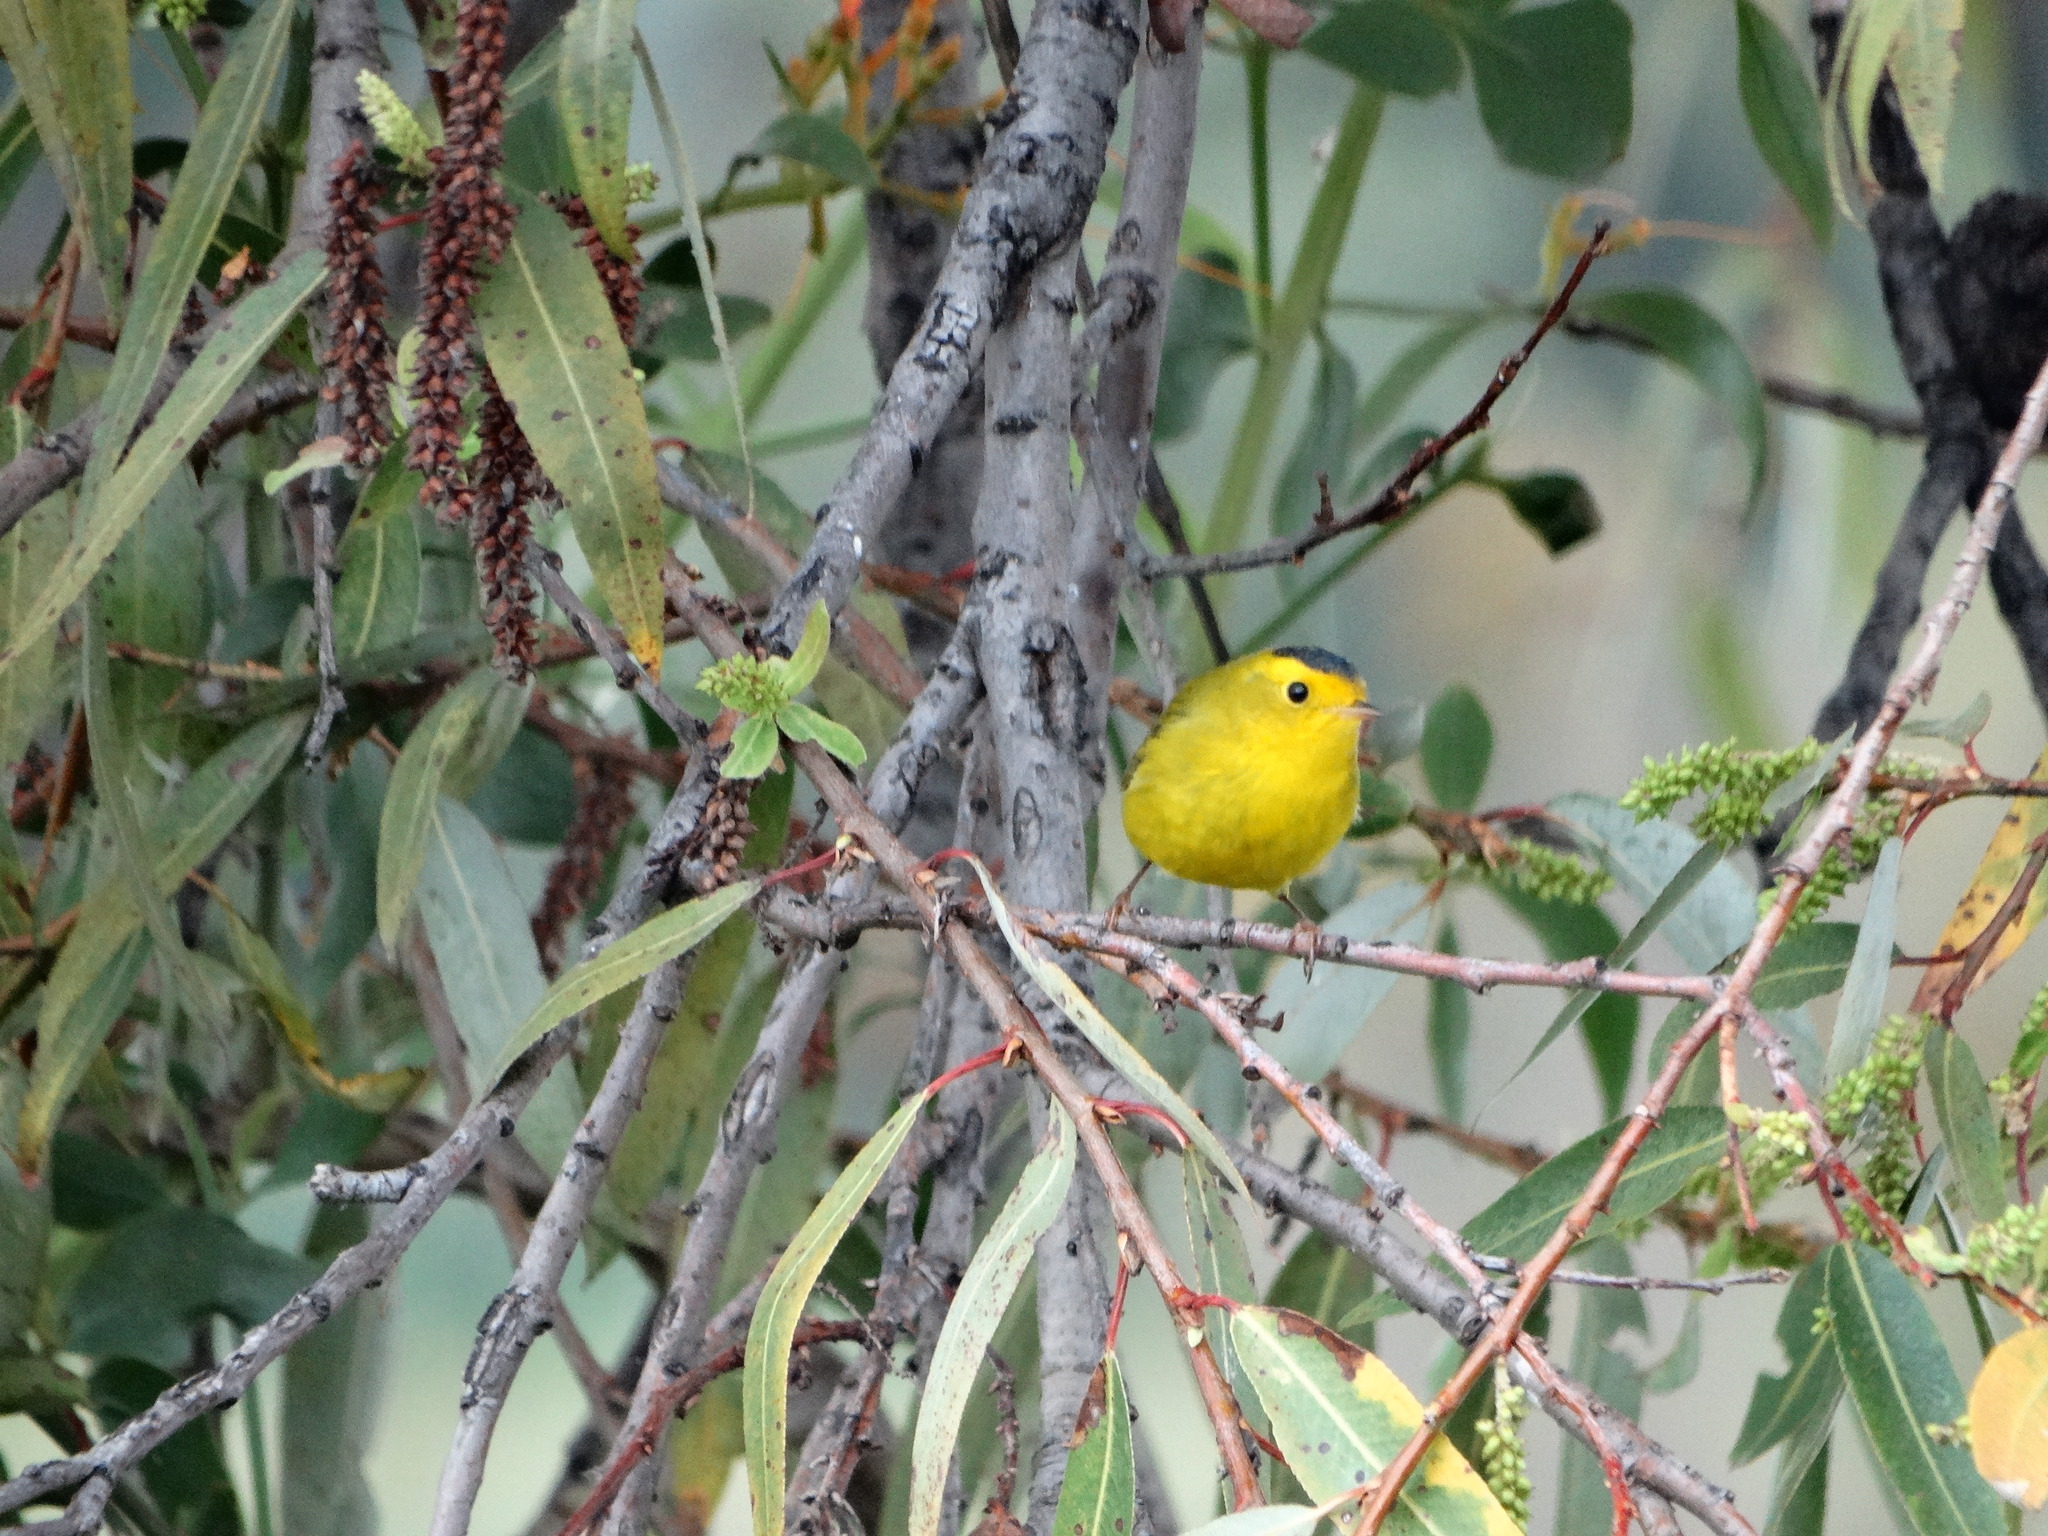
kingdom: Animalia
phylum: Chordata
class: Aves
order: Passeriformes
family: Parulidae
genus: Cardellina
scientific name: Cardellina pusilla
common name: Wilson's warbler
